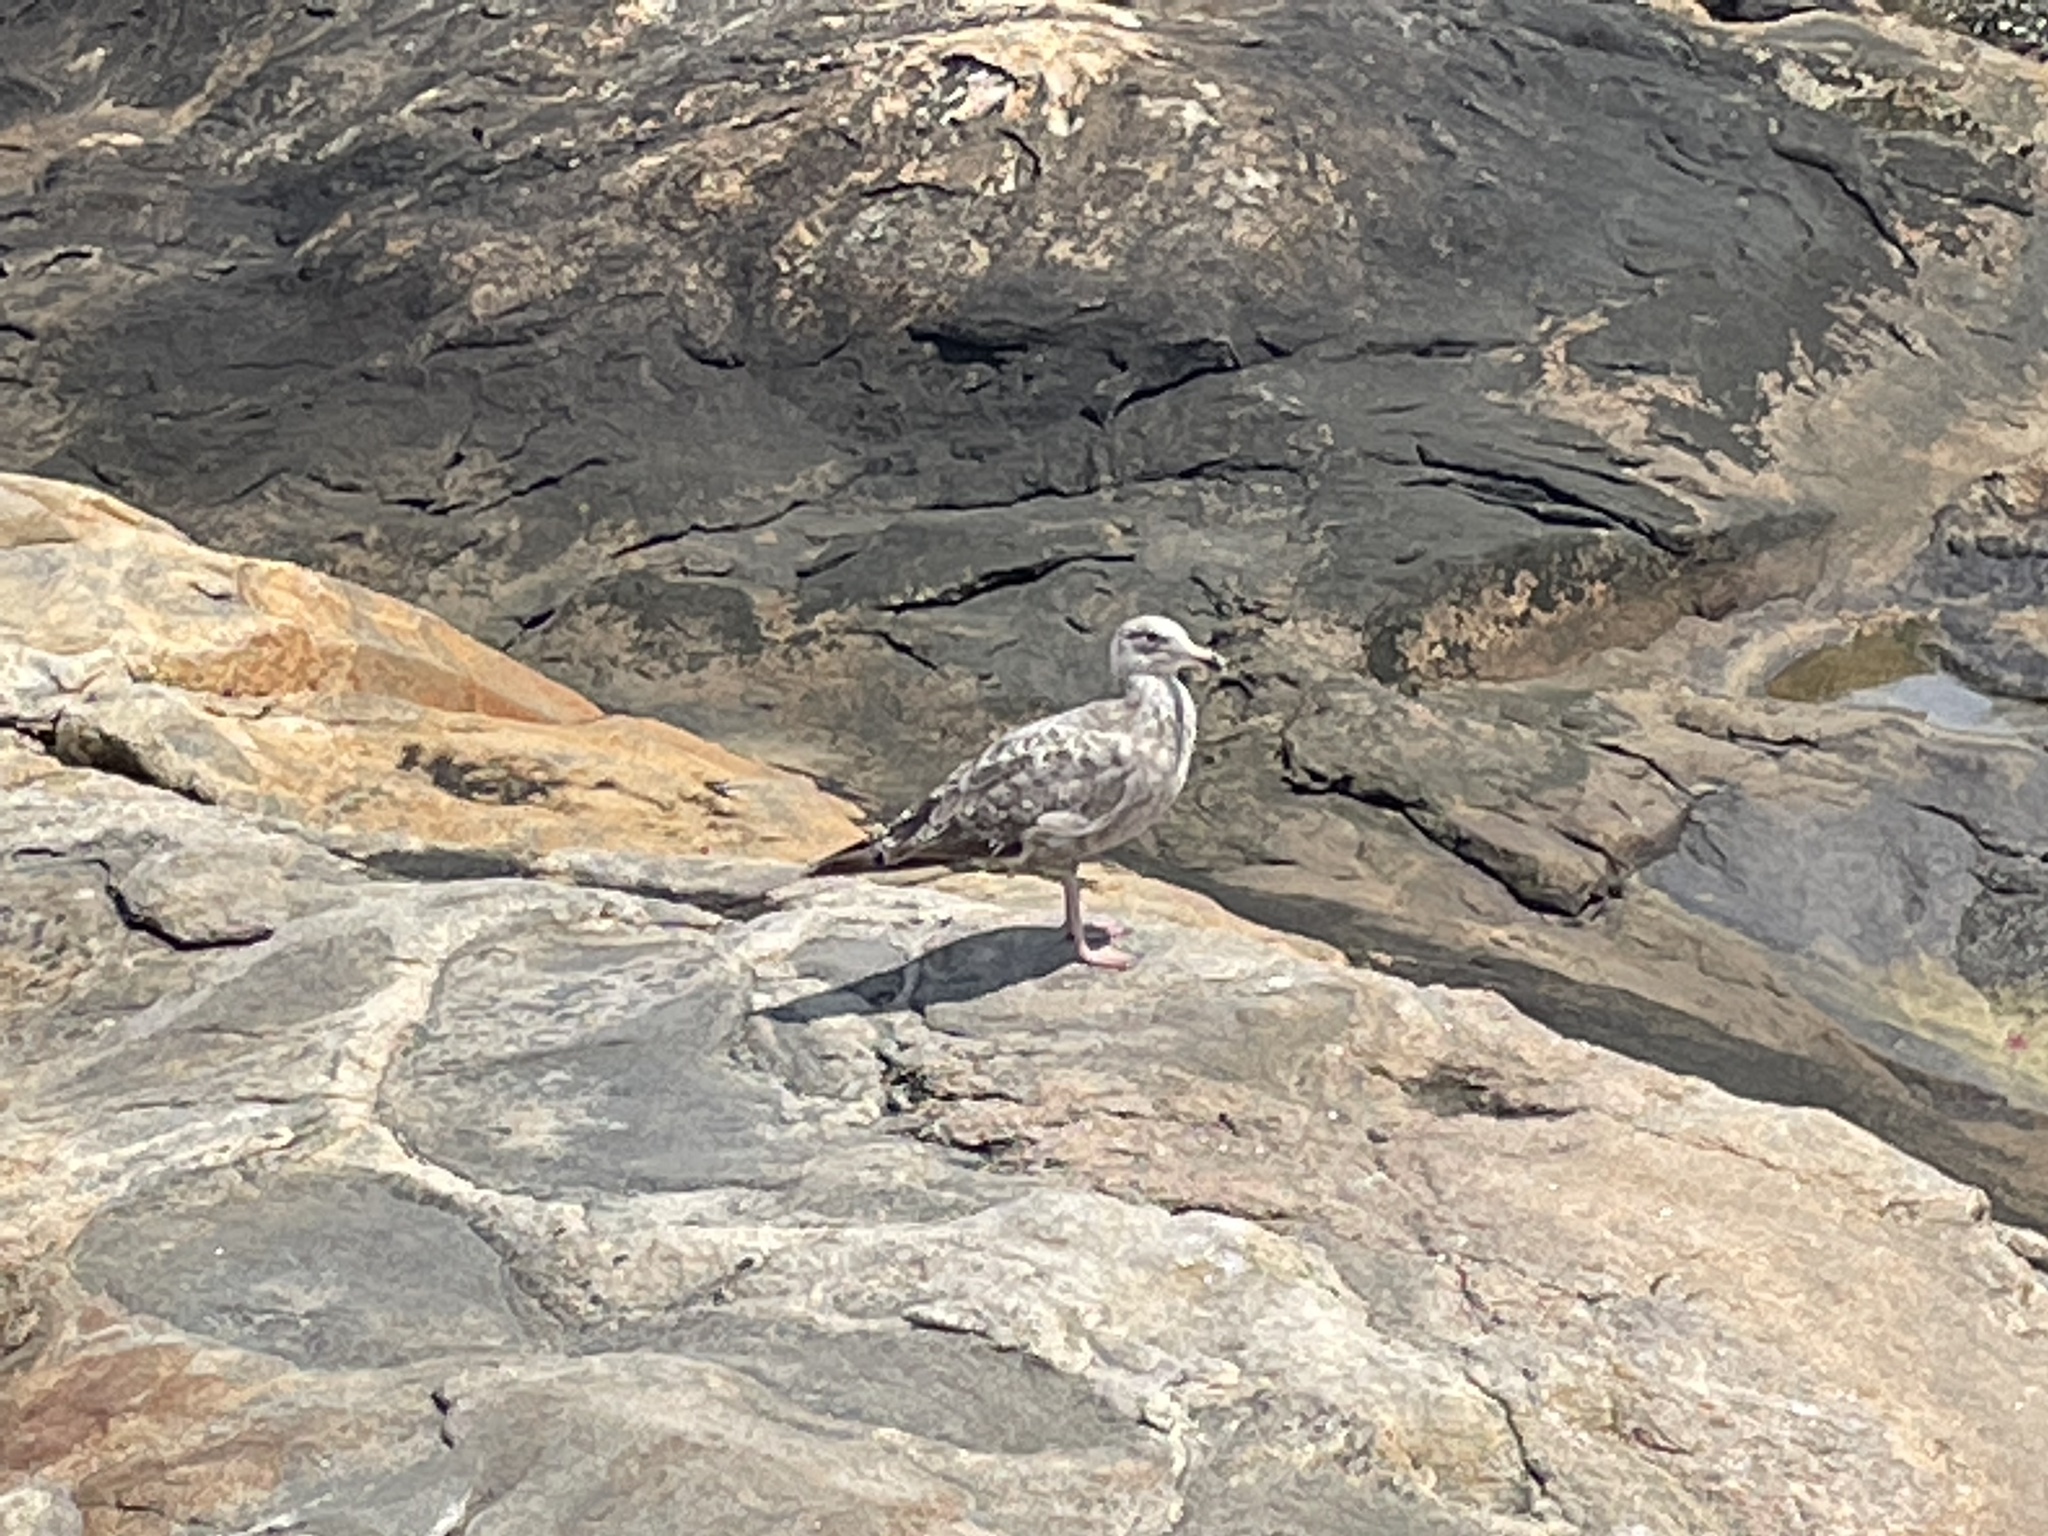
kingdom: Animalia
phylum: Chordata
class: Aves
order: Charadriiformes
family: Laridae
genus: Larus
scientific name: Larus argentatus
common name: Herring gull
